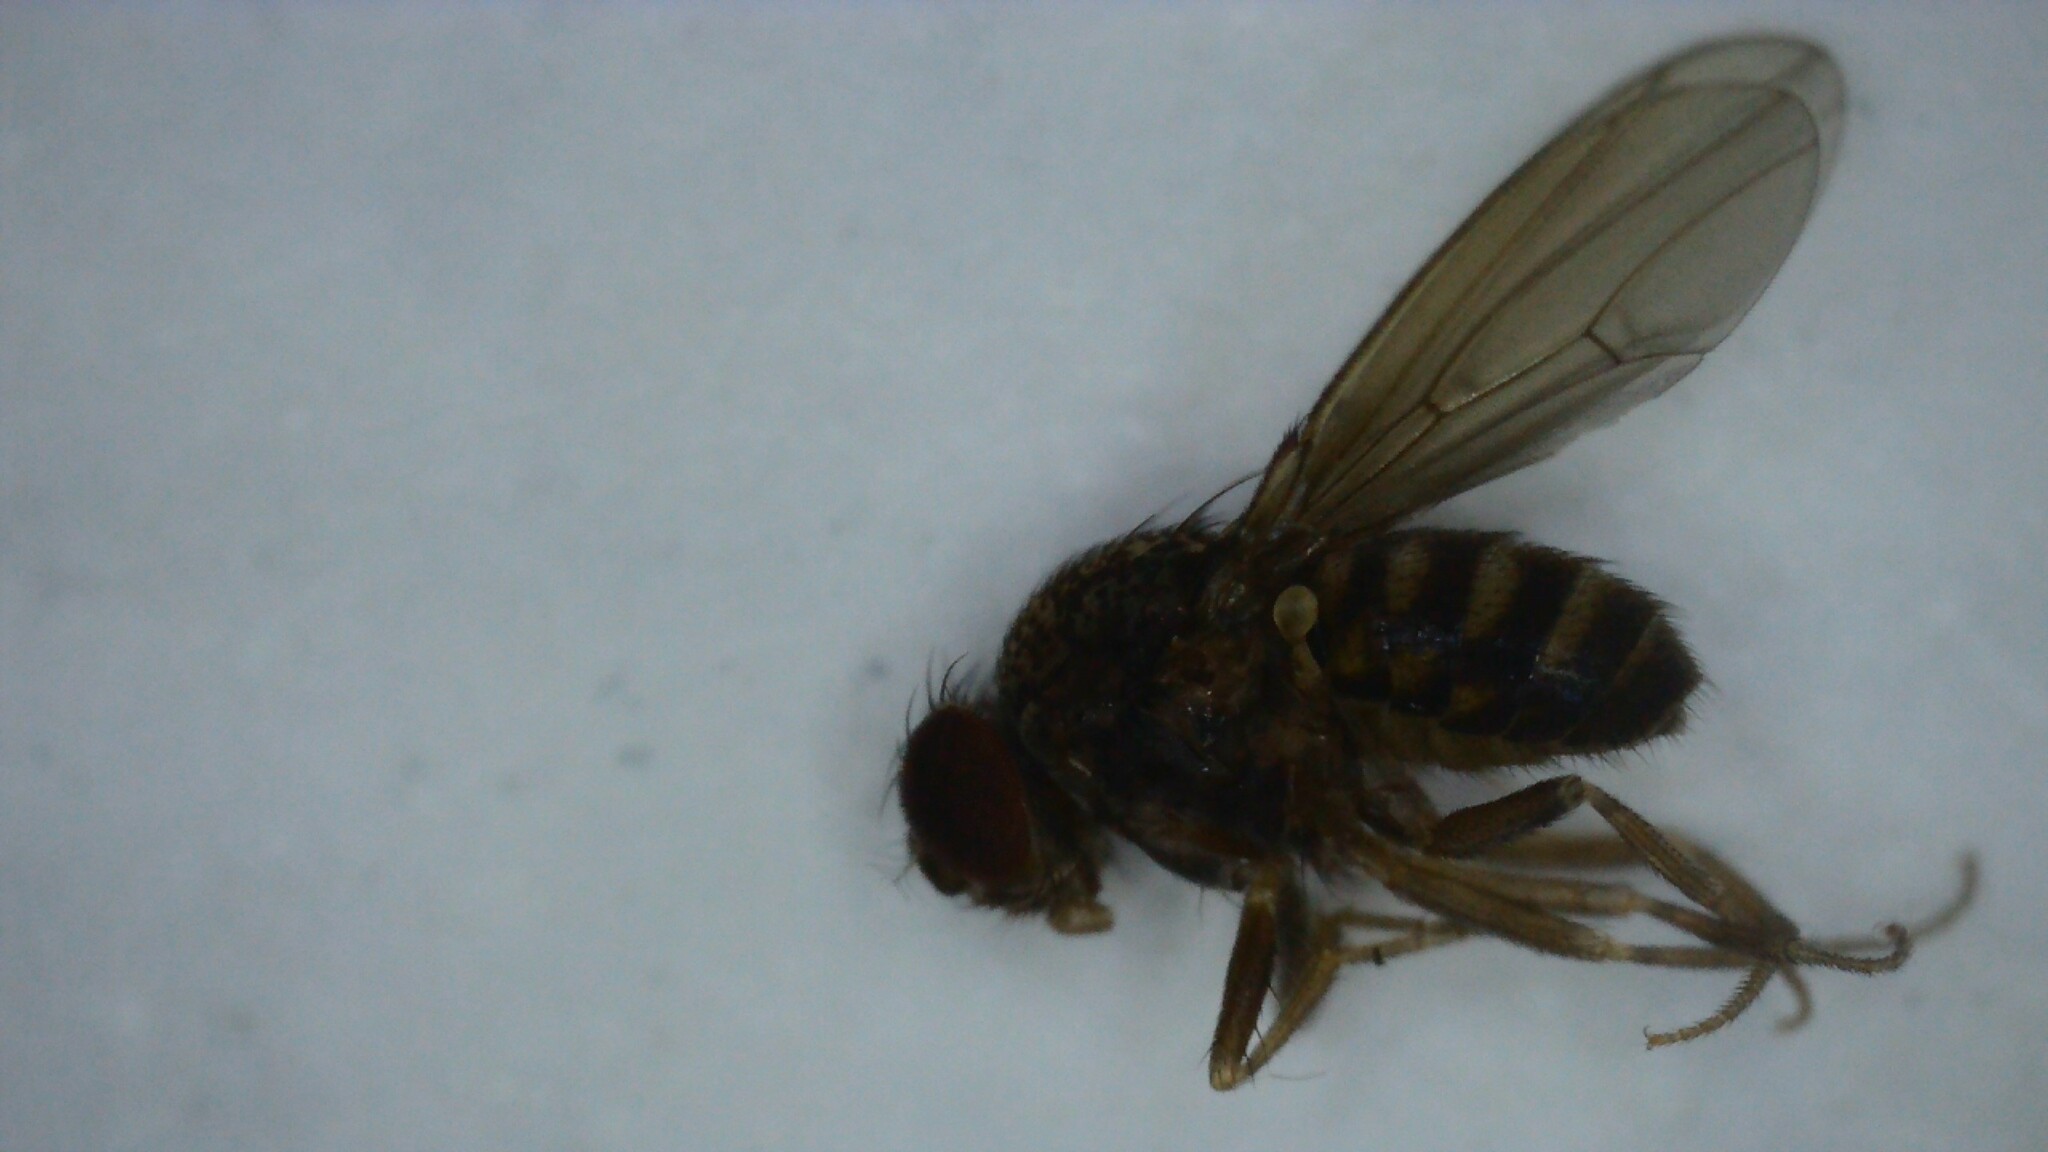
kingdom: Animalia
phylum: Arthropoda
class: Insecta
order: Diptera
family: Drosophilidae
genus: Drosophila
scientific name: Drosophila repleta
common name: Pomace fly
